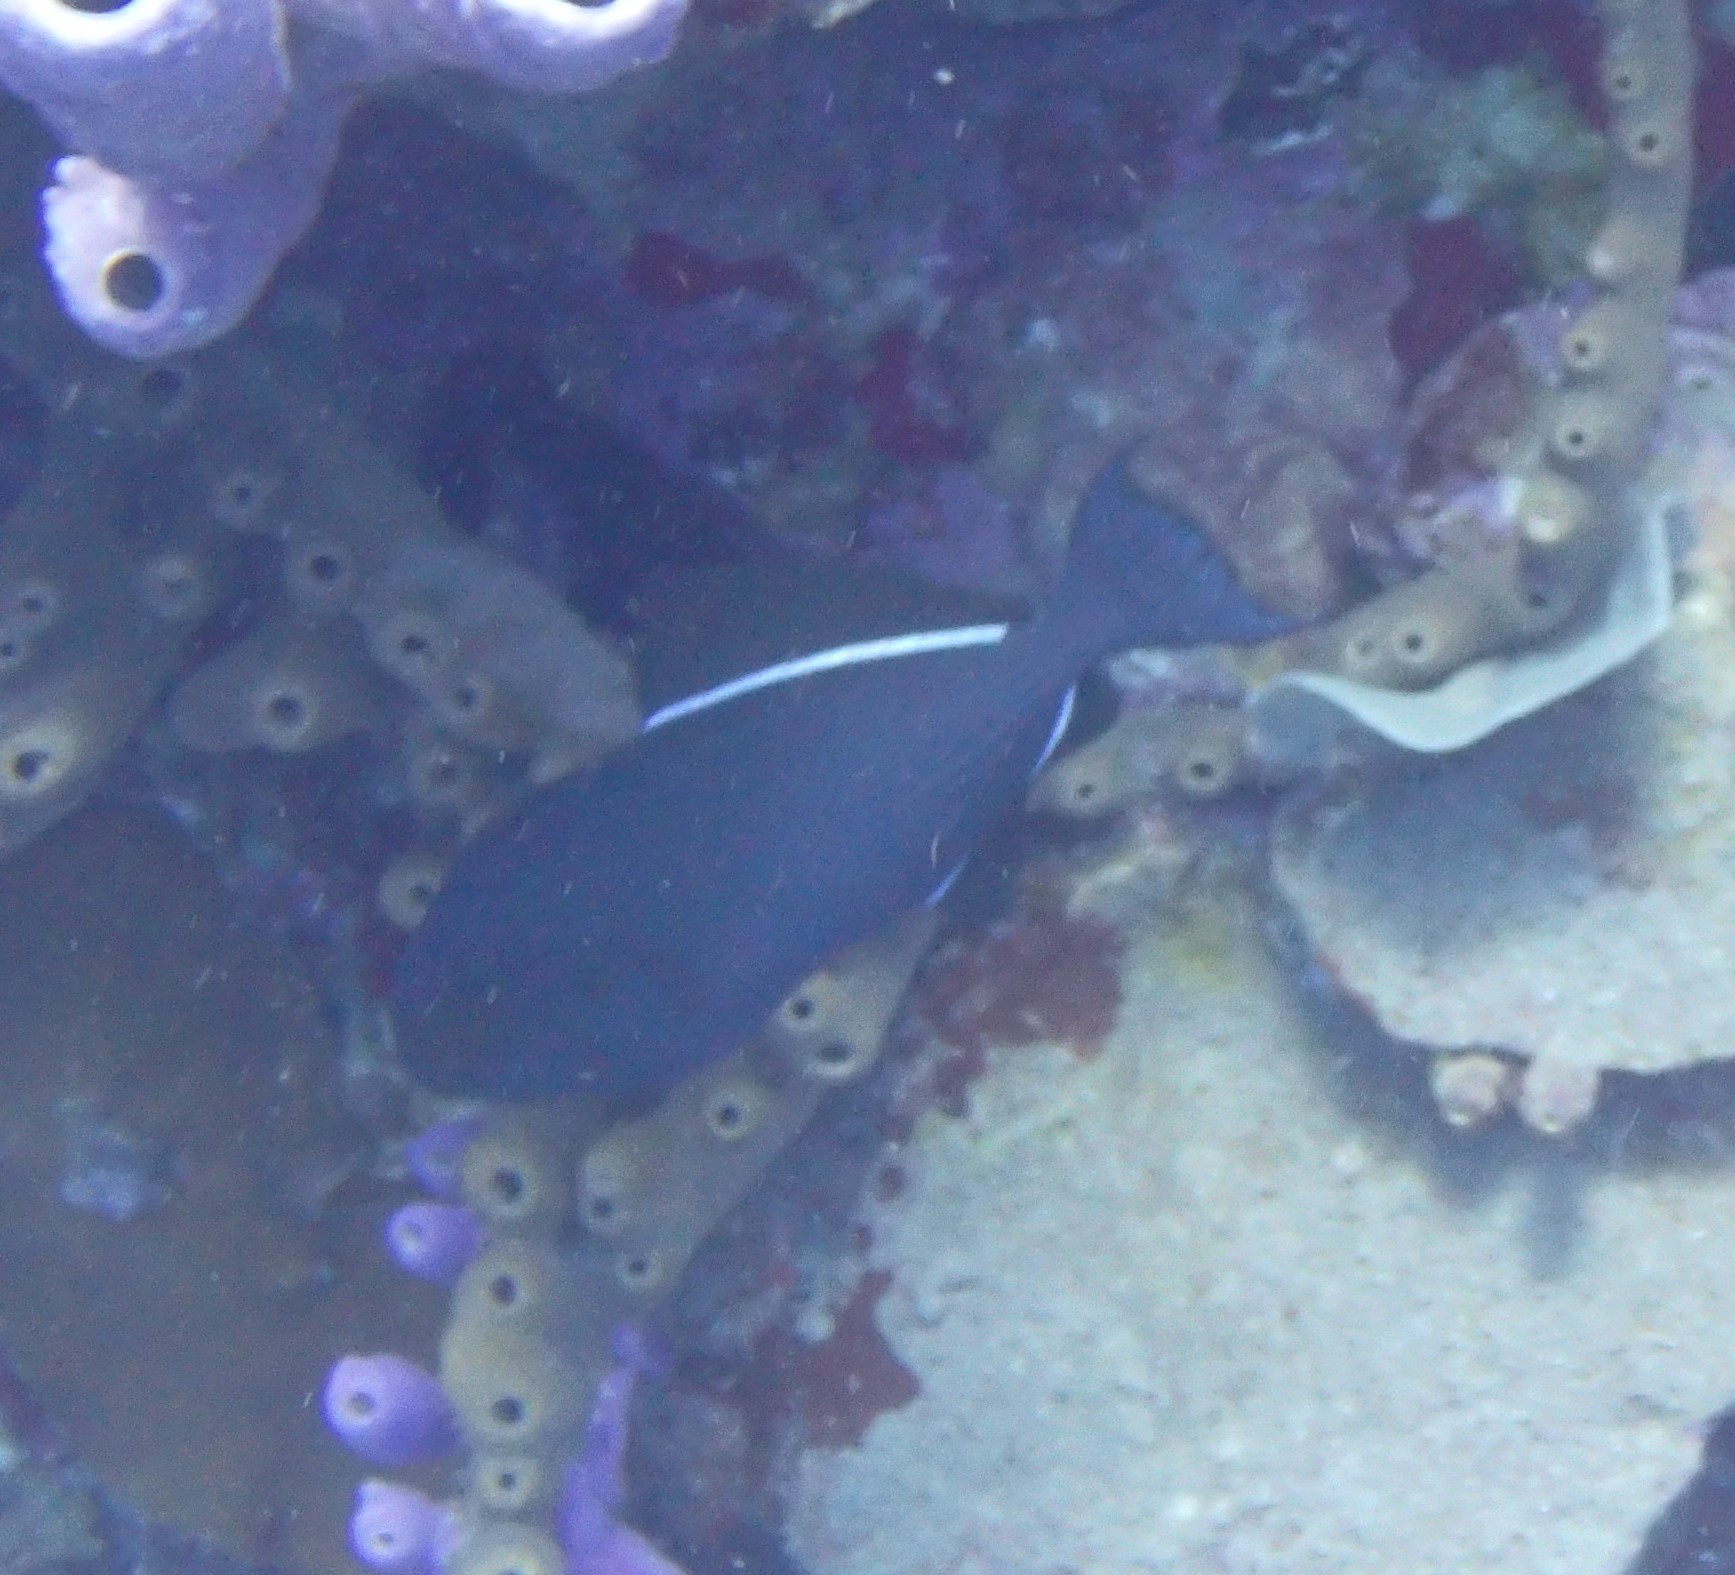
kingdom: Animalia
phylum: Chordata
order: Tetraodontiformes
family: Balistidae
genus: Melichthys
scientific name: Melichthys niger
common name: Black durgon
